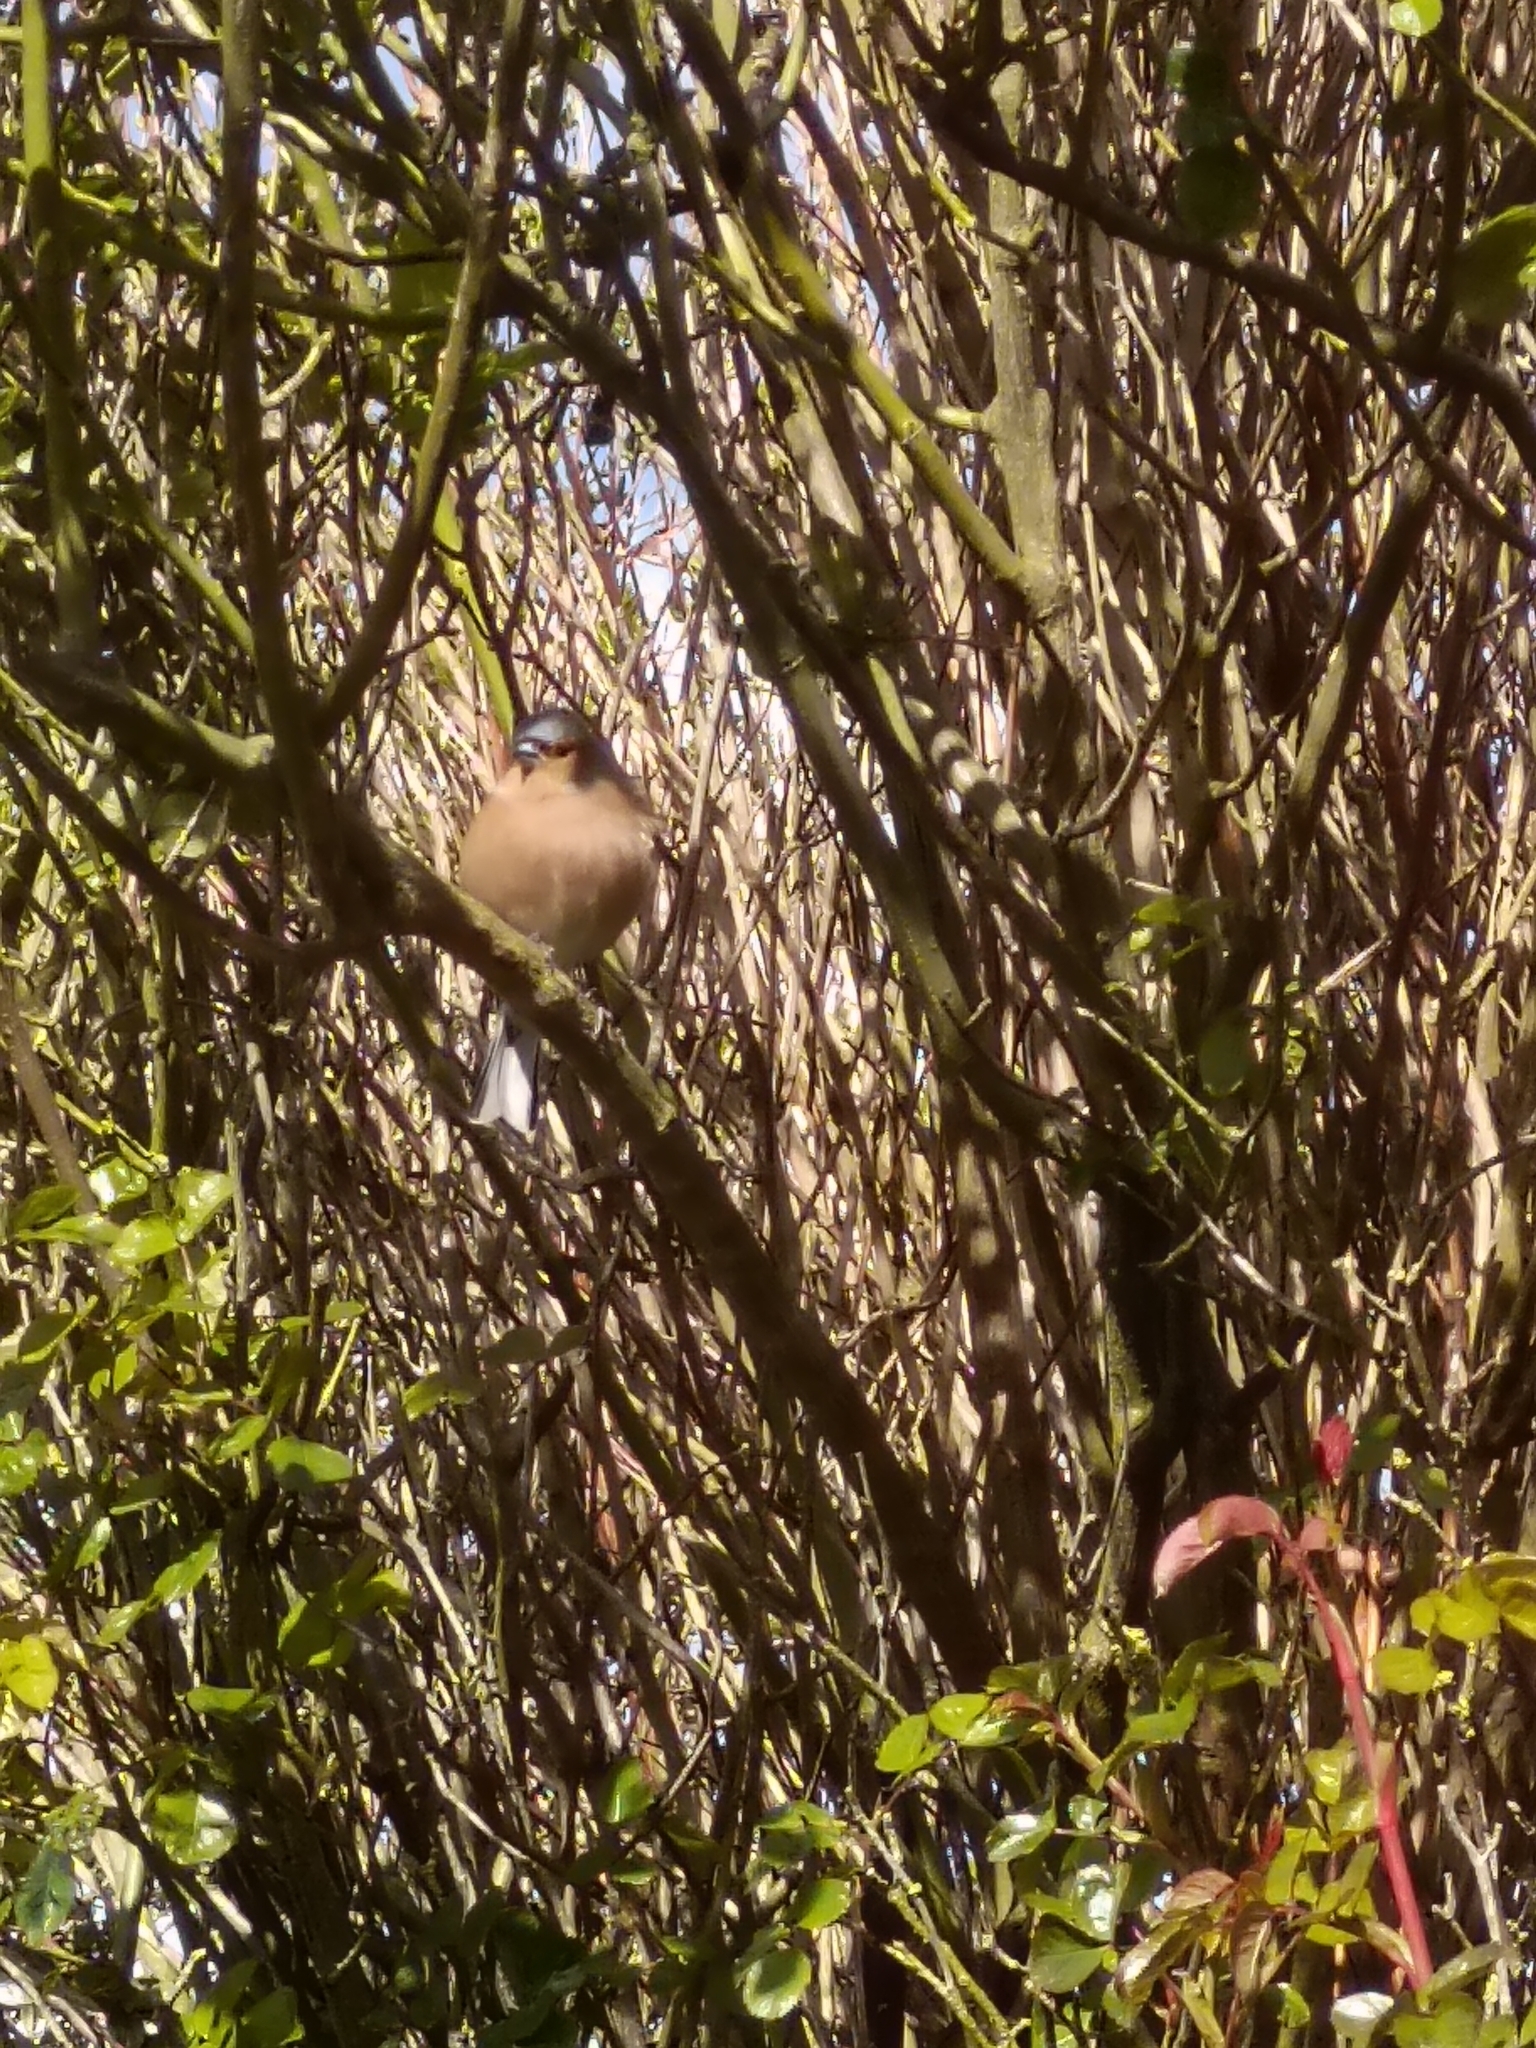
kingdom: Animalia
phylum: Chordata
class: Aves
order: Passeriformes
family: Fringillidae
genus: Fringilla
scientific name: Fringilla coelebs
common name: Common chaffinch
